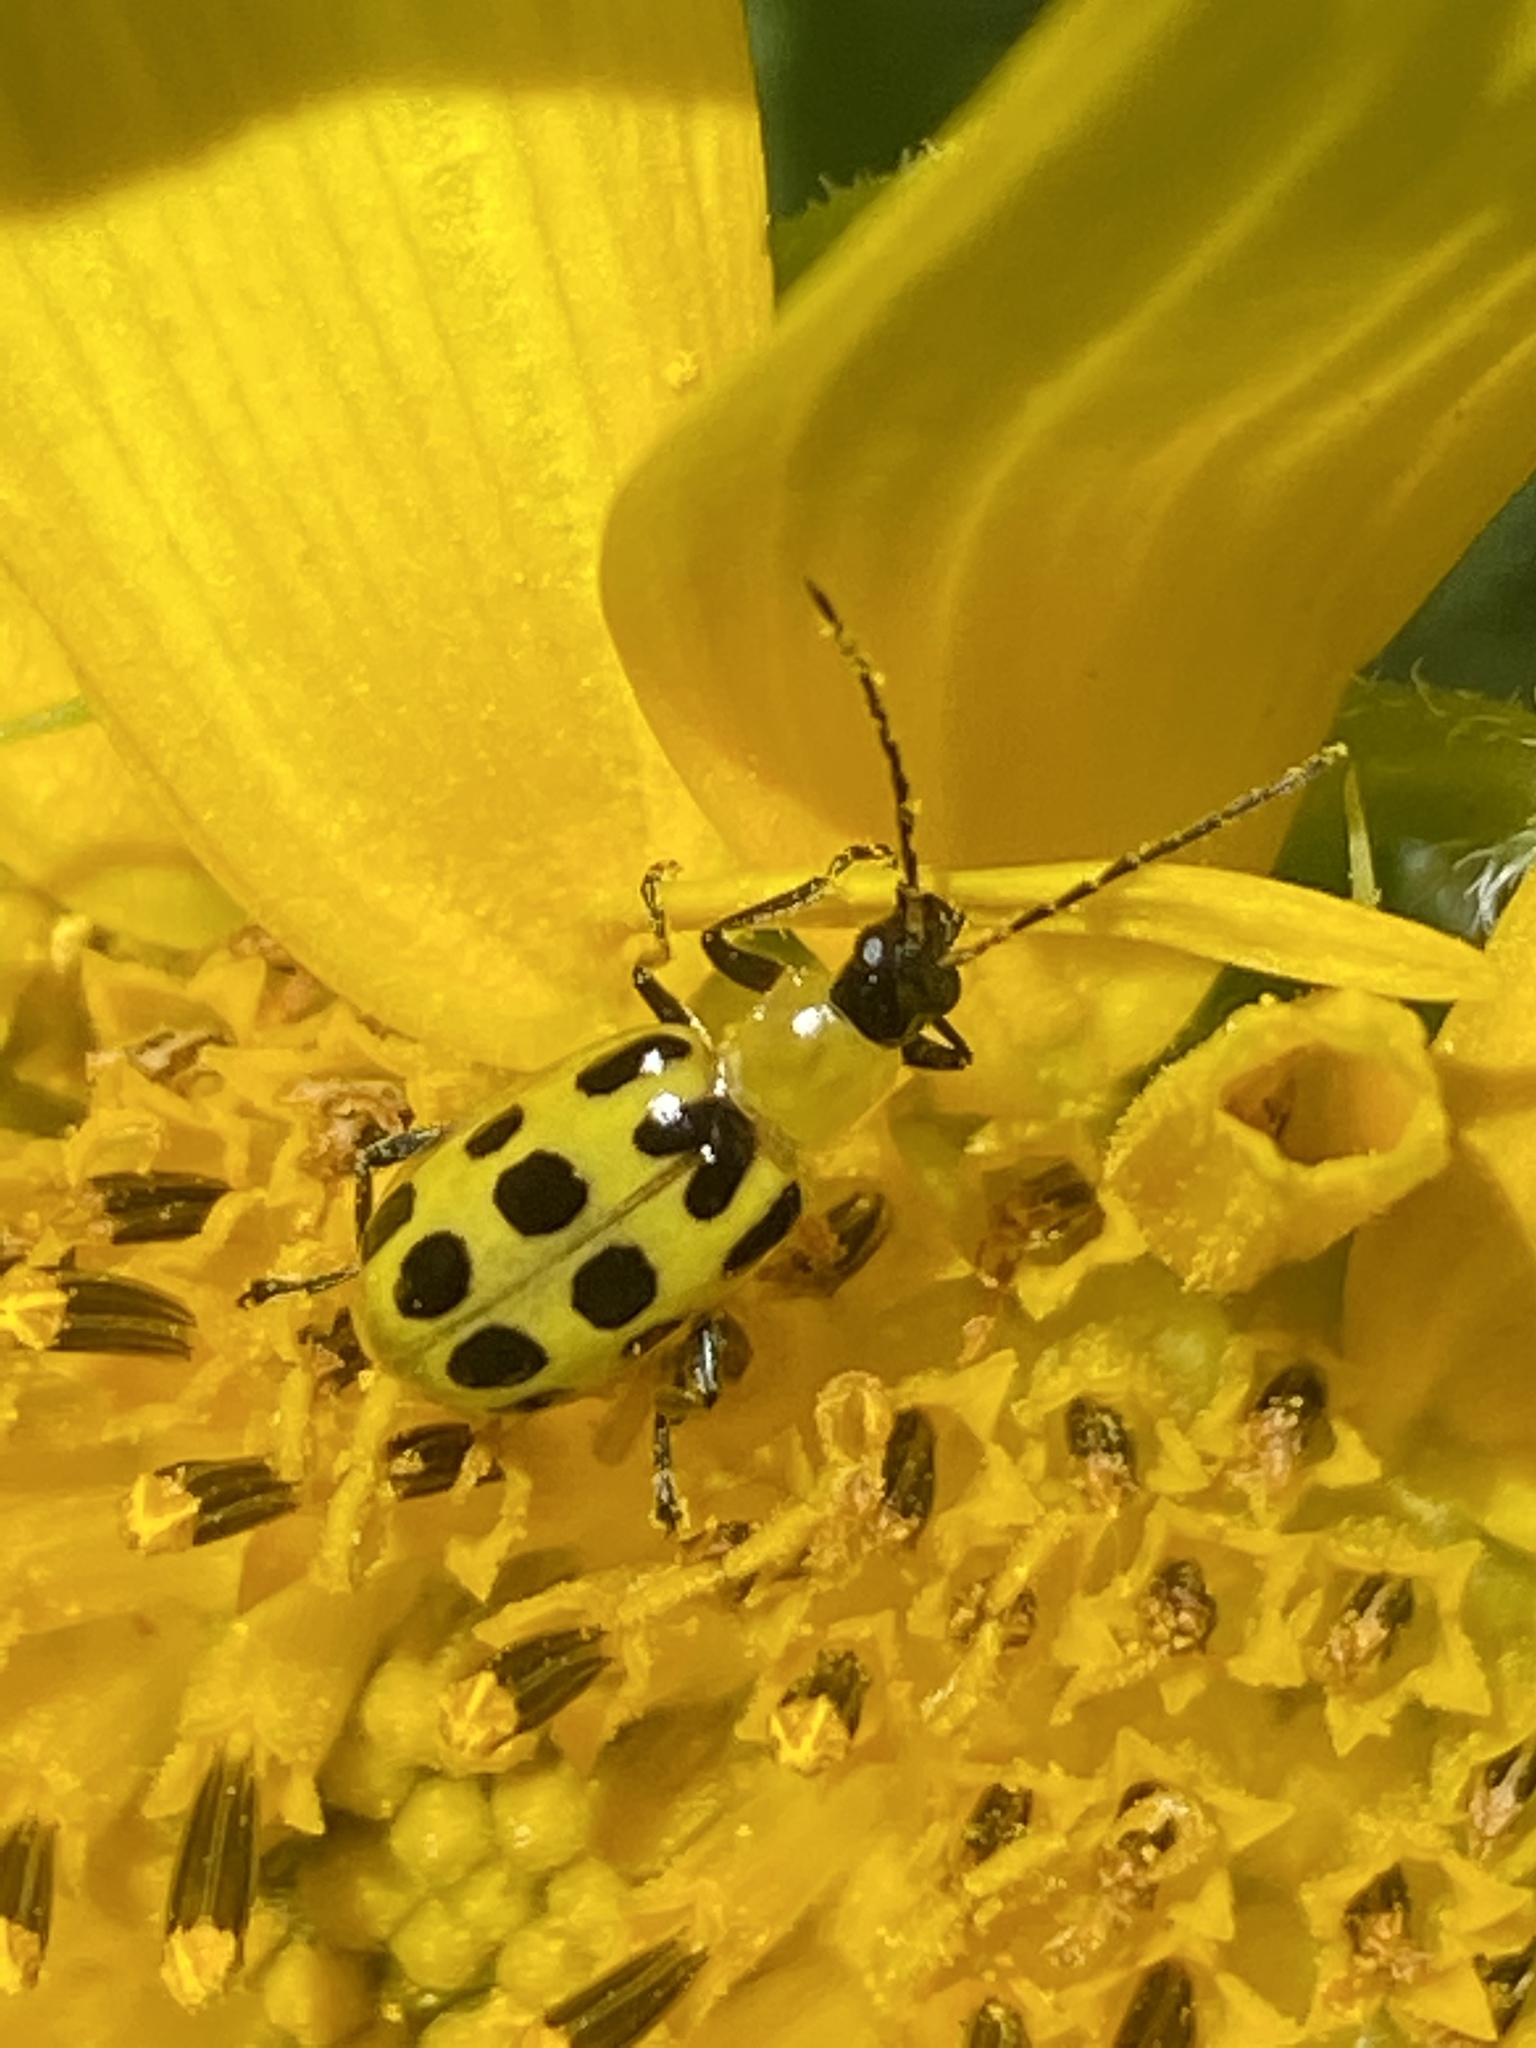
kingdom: Animalia
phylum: Arthropoda
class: Insecta
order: Coleoptera
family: Chrysomelidae
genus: Diabrotica
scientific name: Diabrotica undecimpunctata
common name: Spotted cucumber beetle
